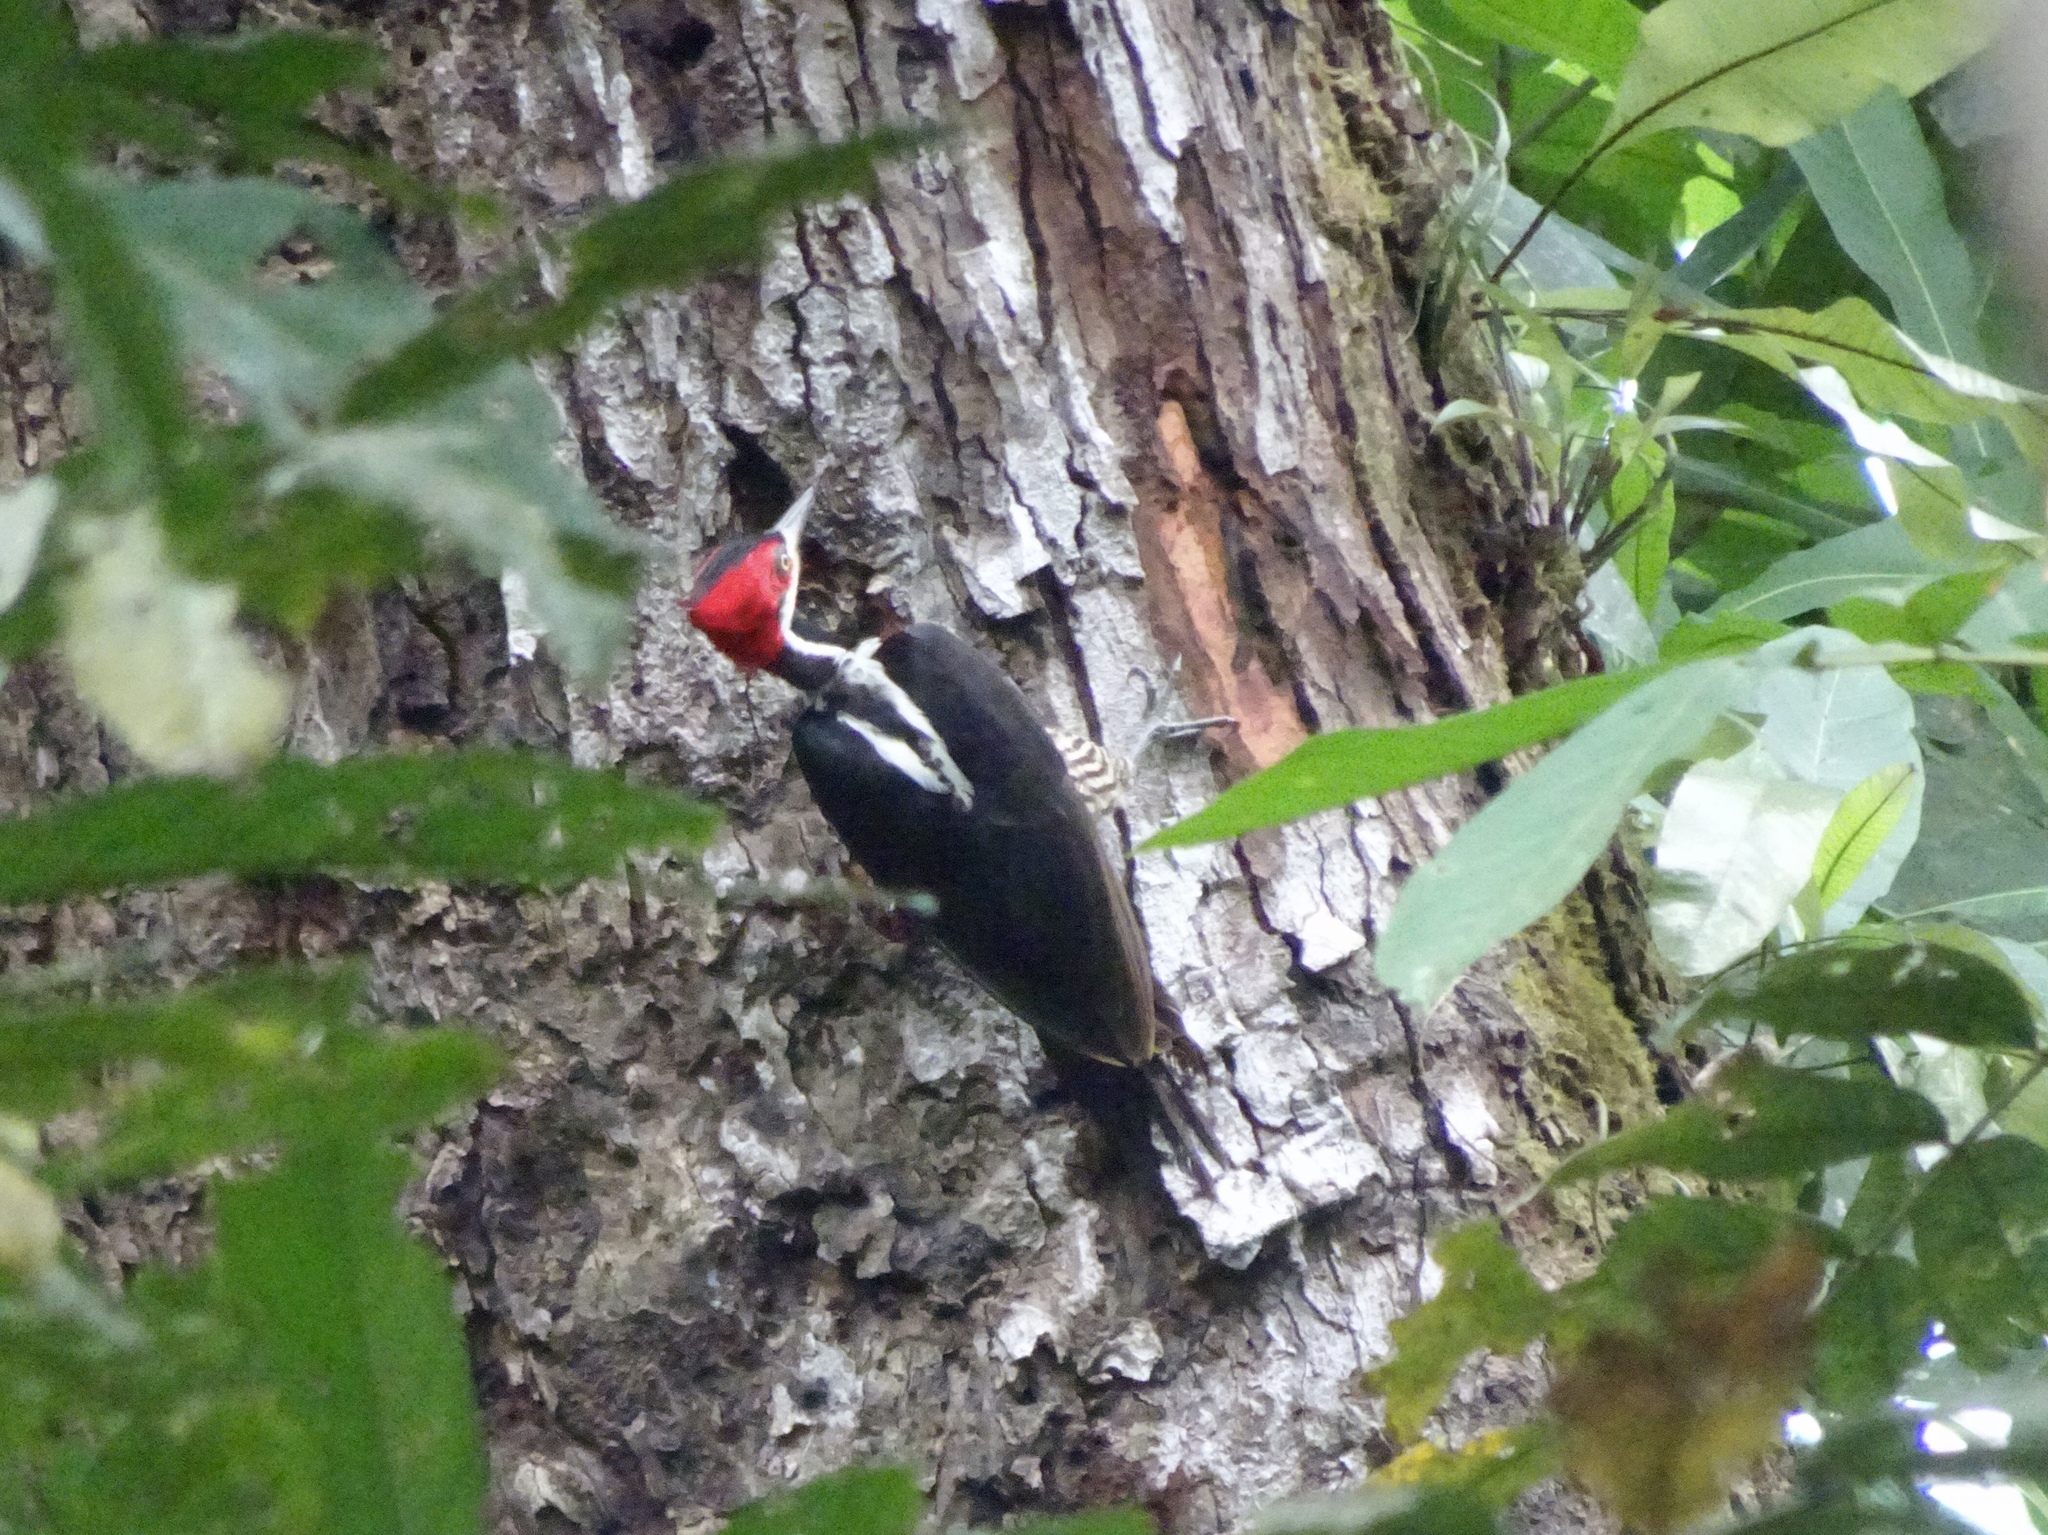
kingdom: Animalia
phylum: Chordata
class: Aves
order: Piciformes
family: Picidae
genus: Campephilus
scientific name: Campephilus melanoleucos
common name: Crimson-crested woodpecker
